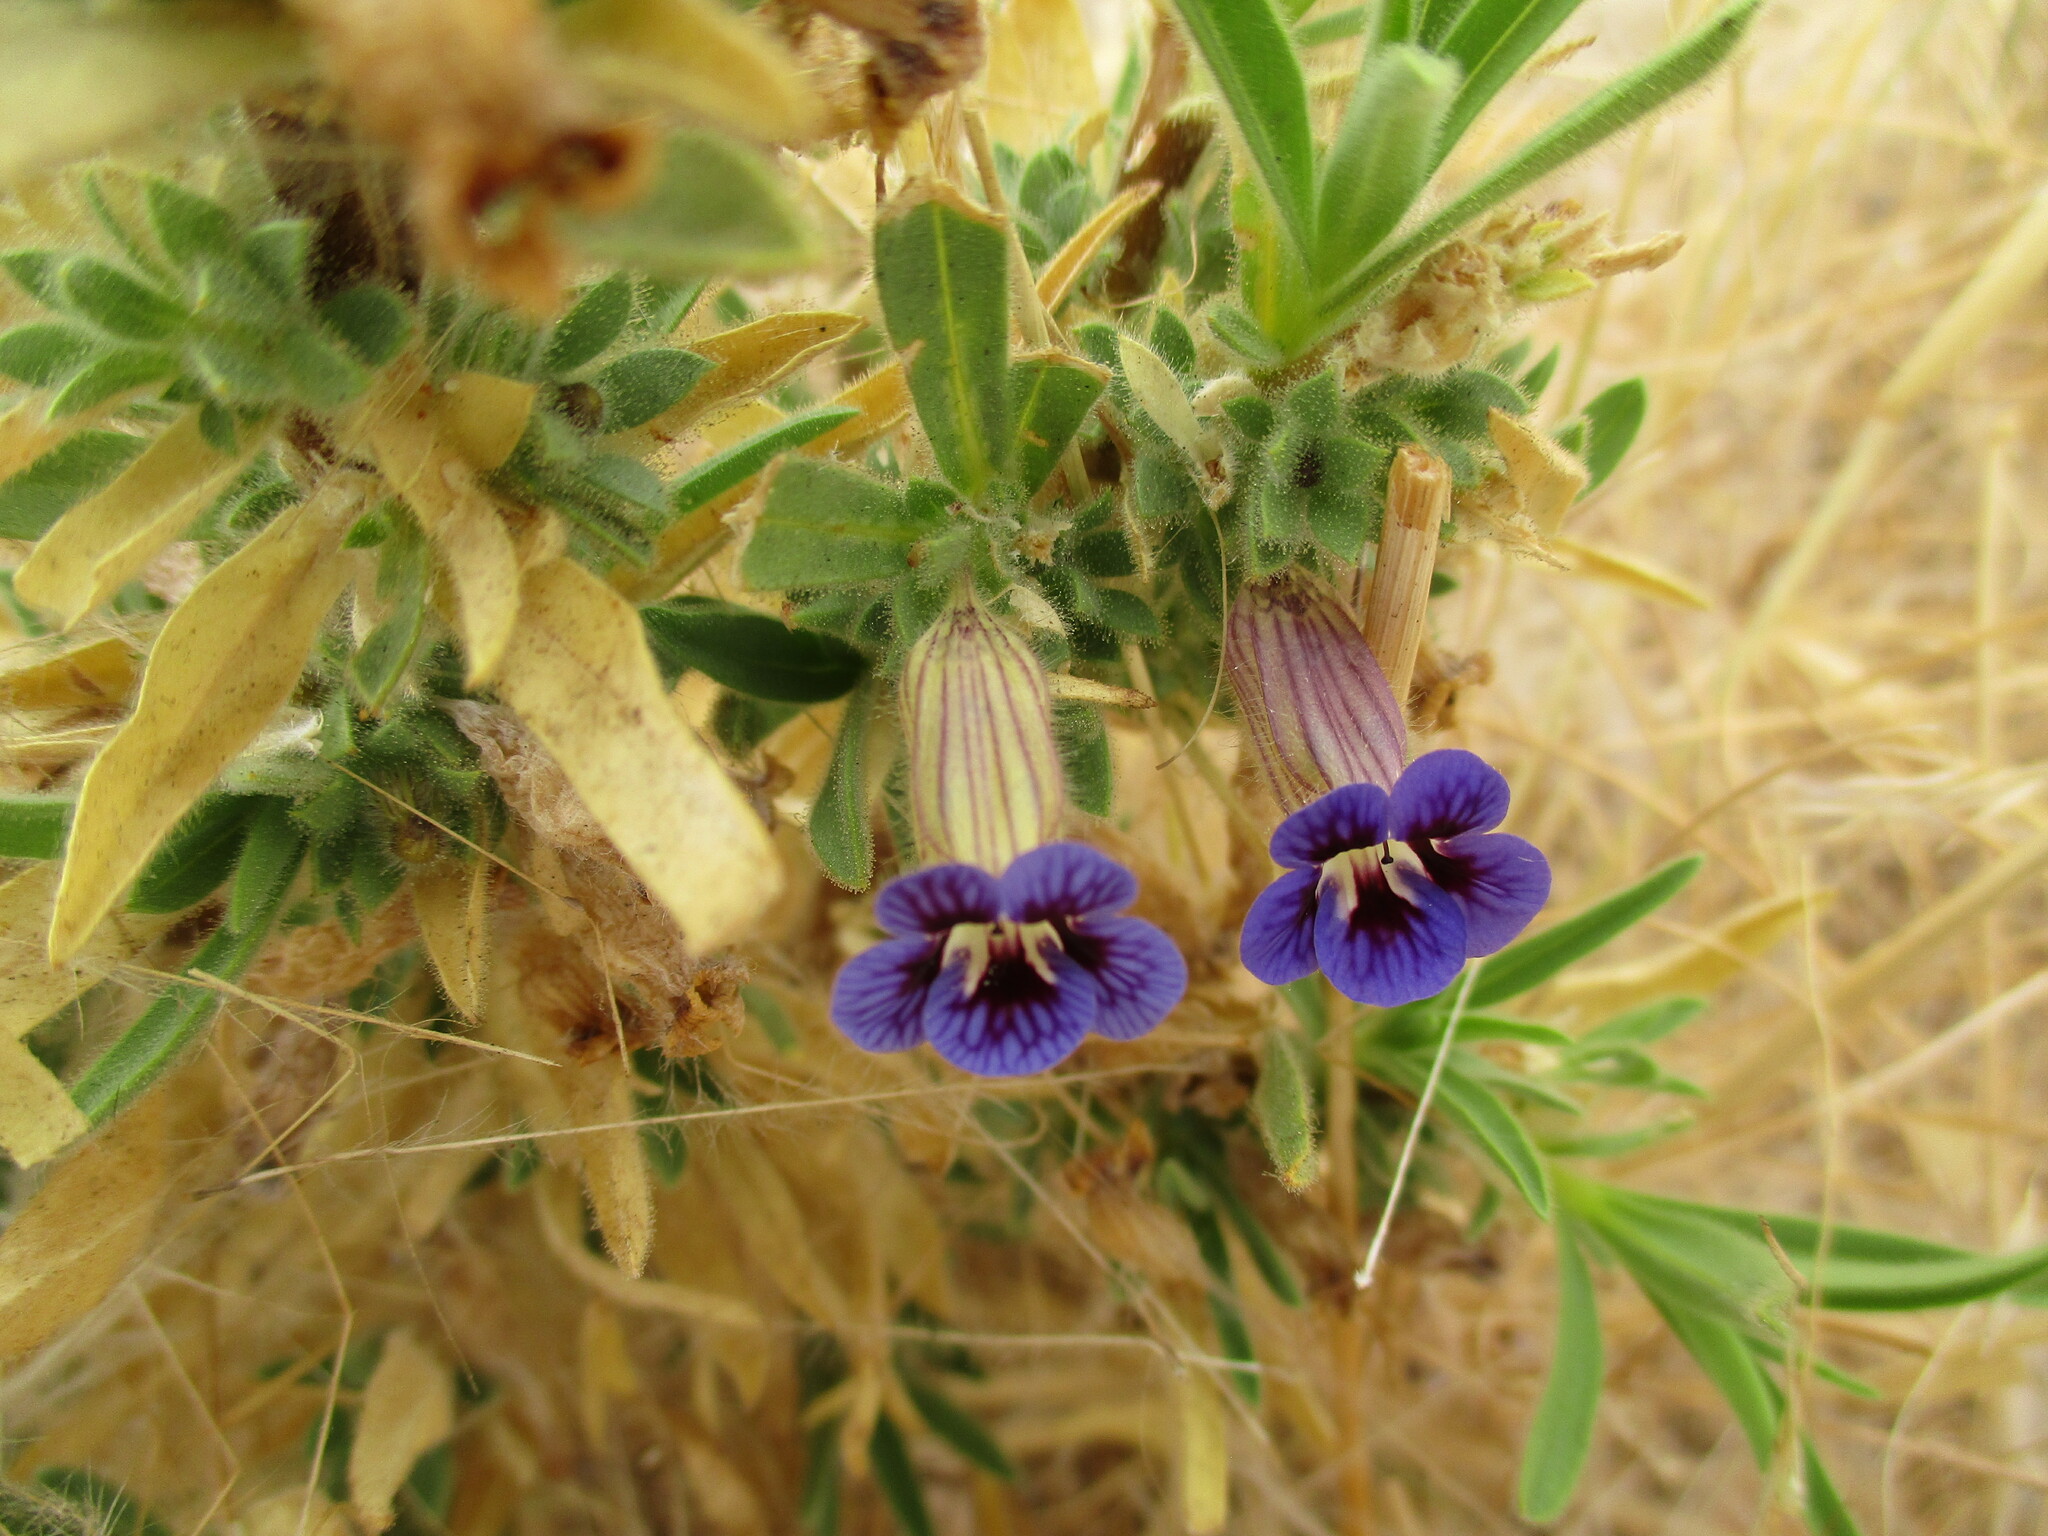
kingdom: Plantae
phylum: Tracheophyta
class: Magnoliopsida
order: Lamiales
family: Scrophulariaceae
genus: Aptosimum
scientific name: Aptosimum spinescens
